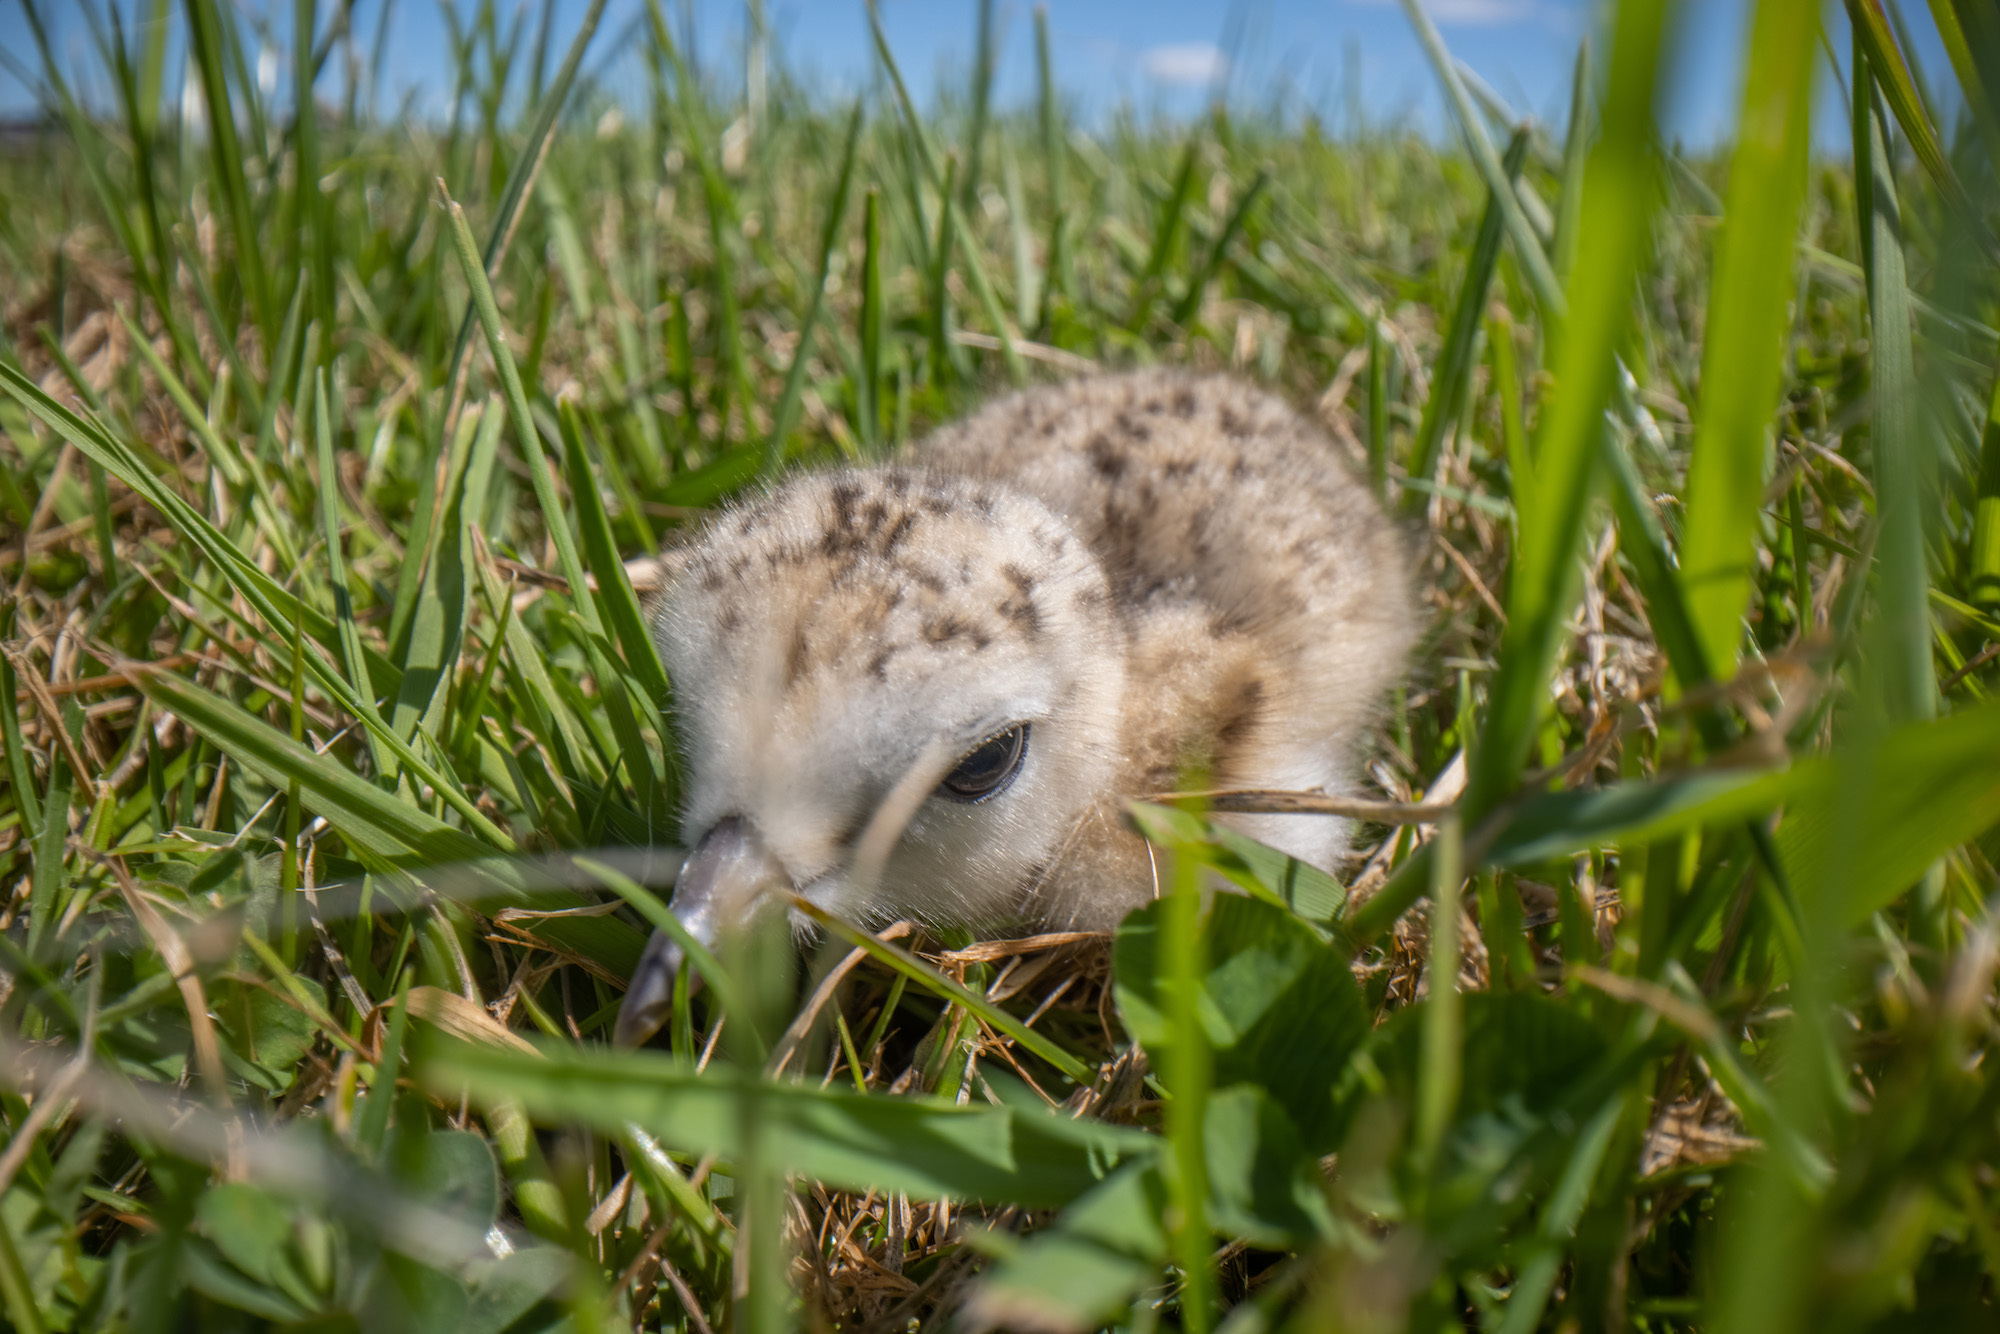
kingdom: Animalia
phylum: Chordata
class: Aves
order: Charadriiformes
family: Charadriidae
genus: Anarhynchus
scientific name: Anarhynchus
